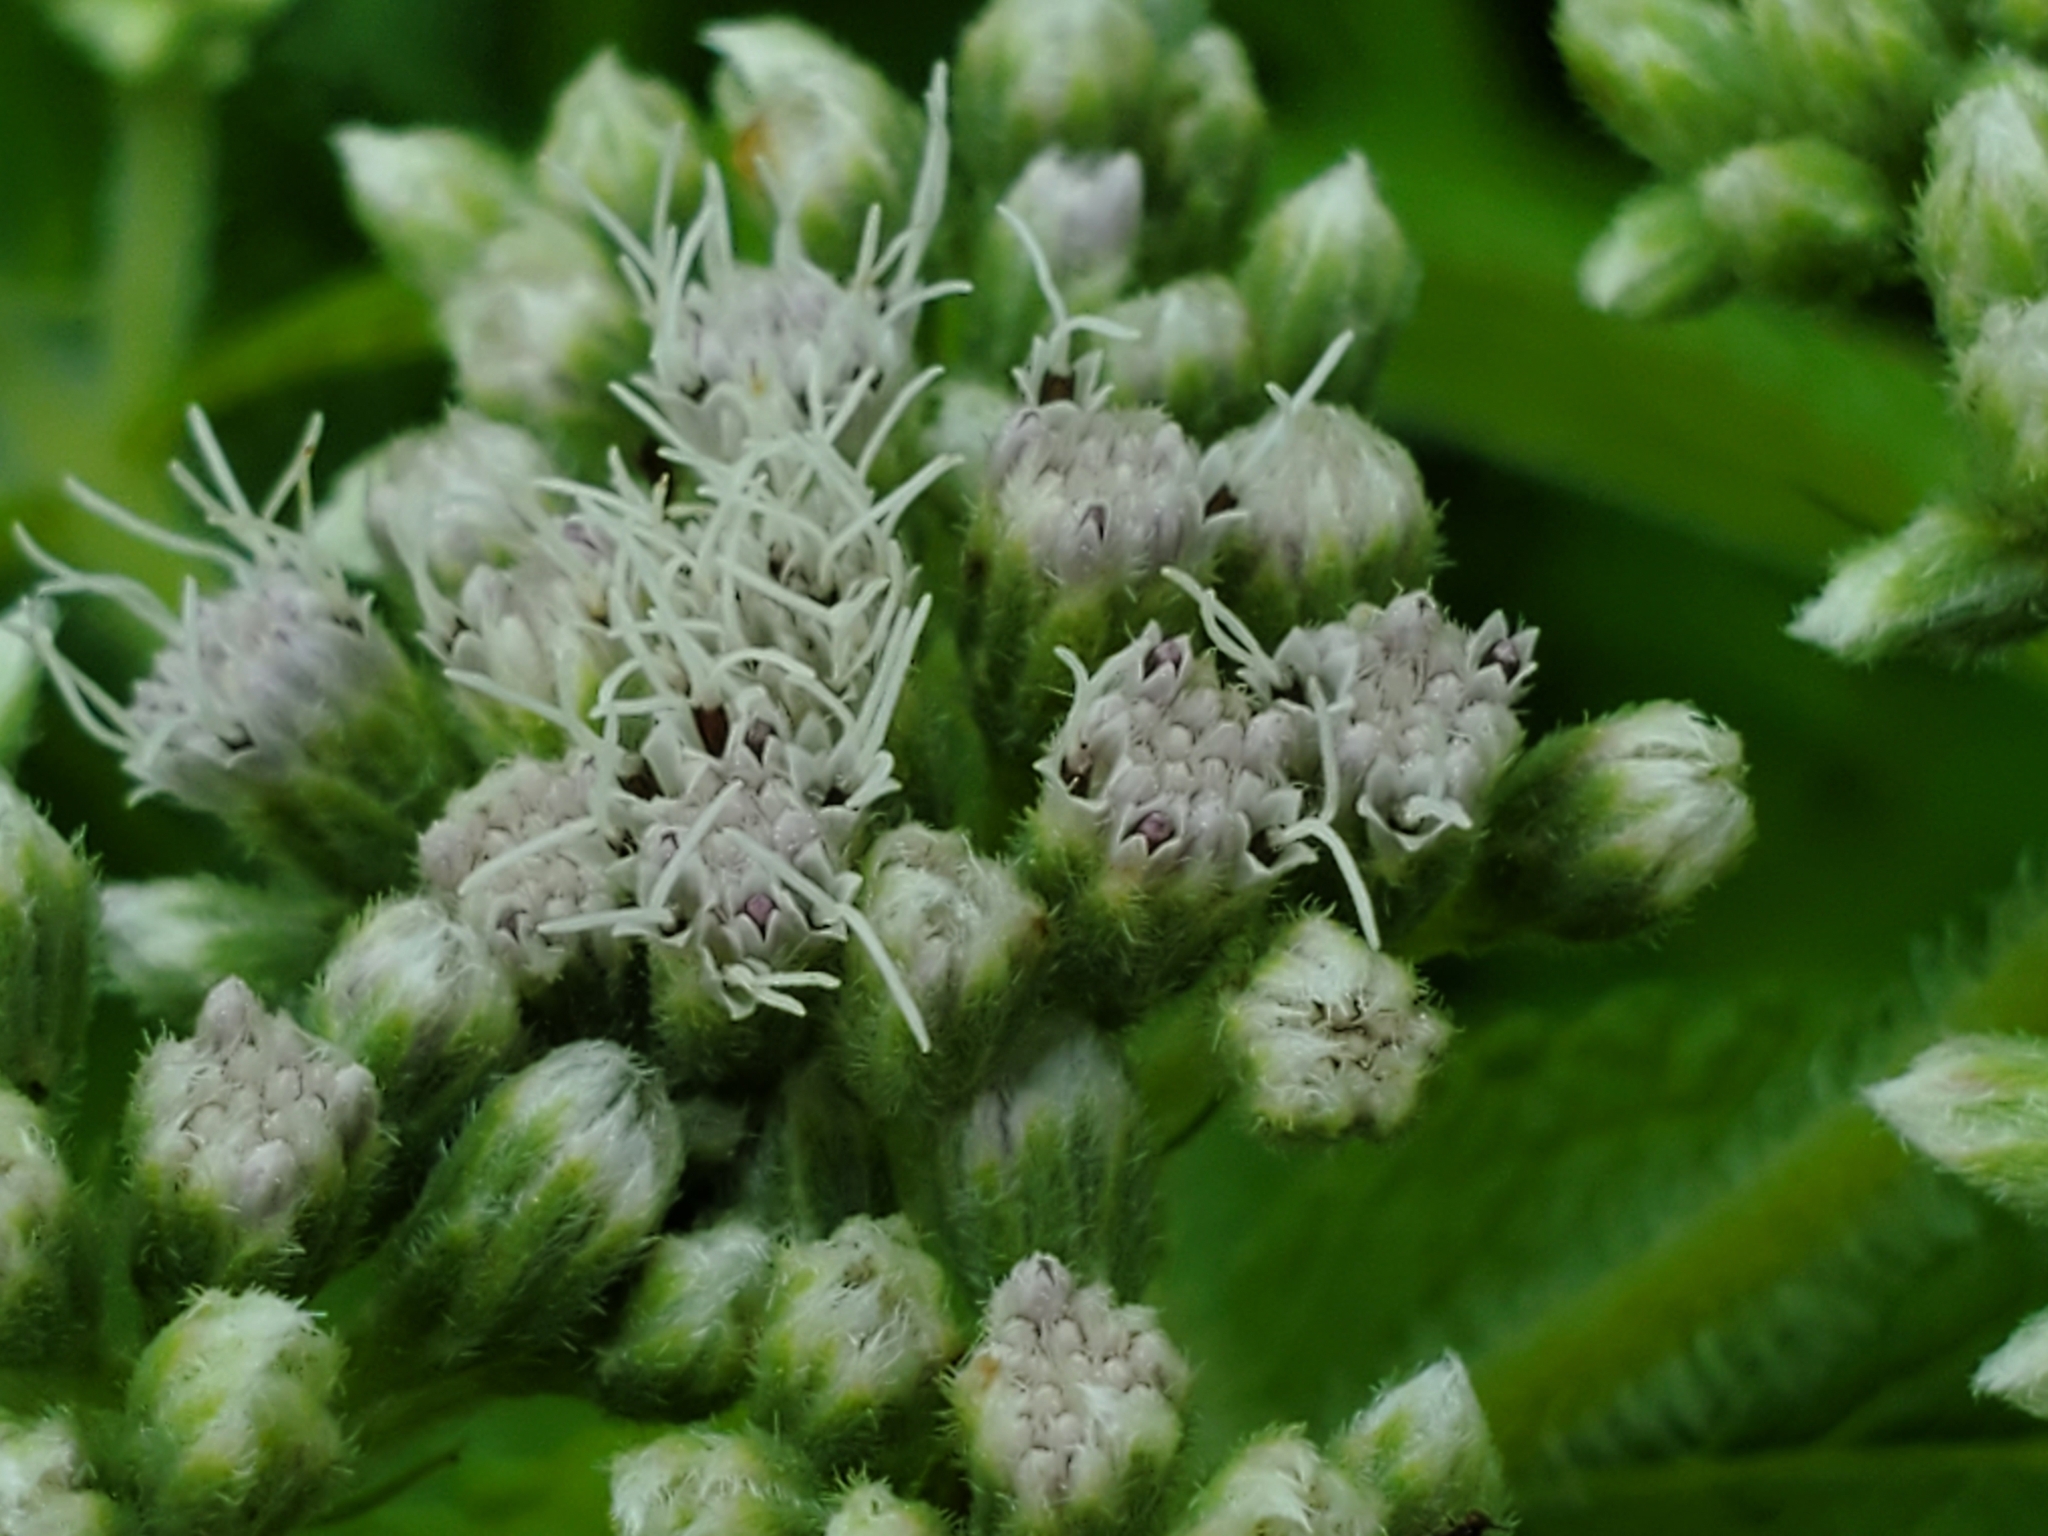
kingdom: Plantae
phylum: Tracheophyta
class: Magnoliopsida
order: Asterales
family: Asteraceae
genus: Eupatorium
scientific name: Eupatorium perfoliatum
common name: Boneset
